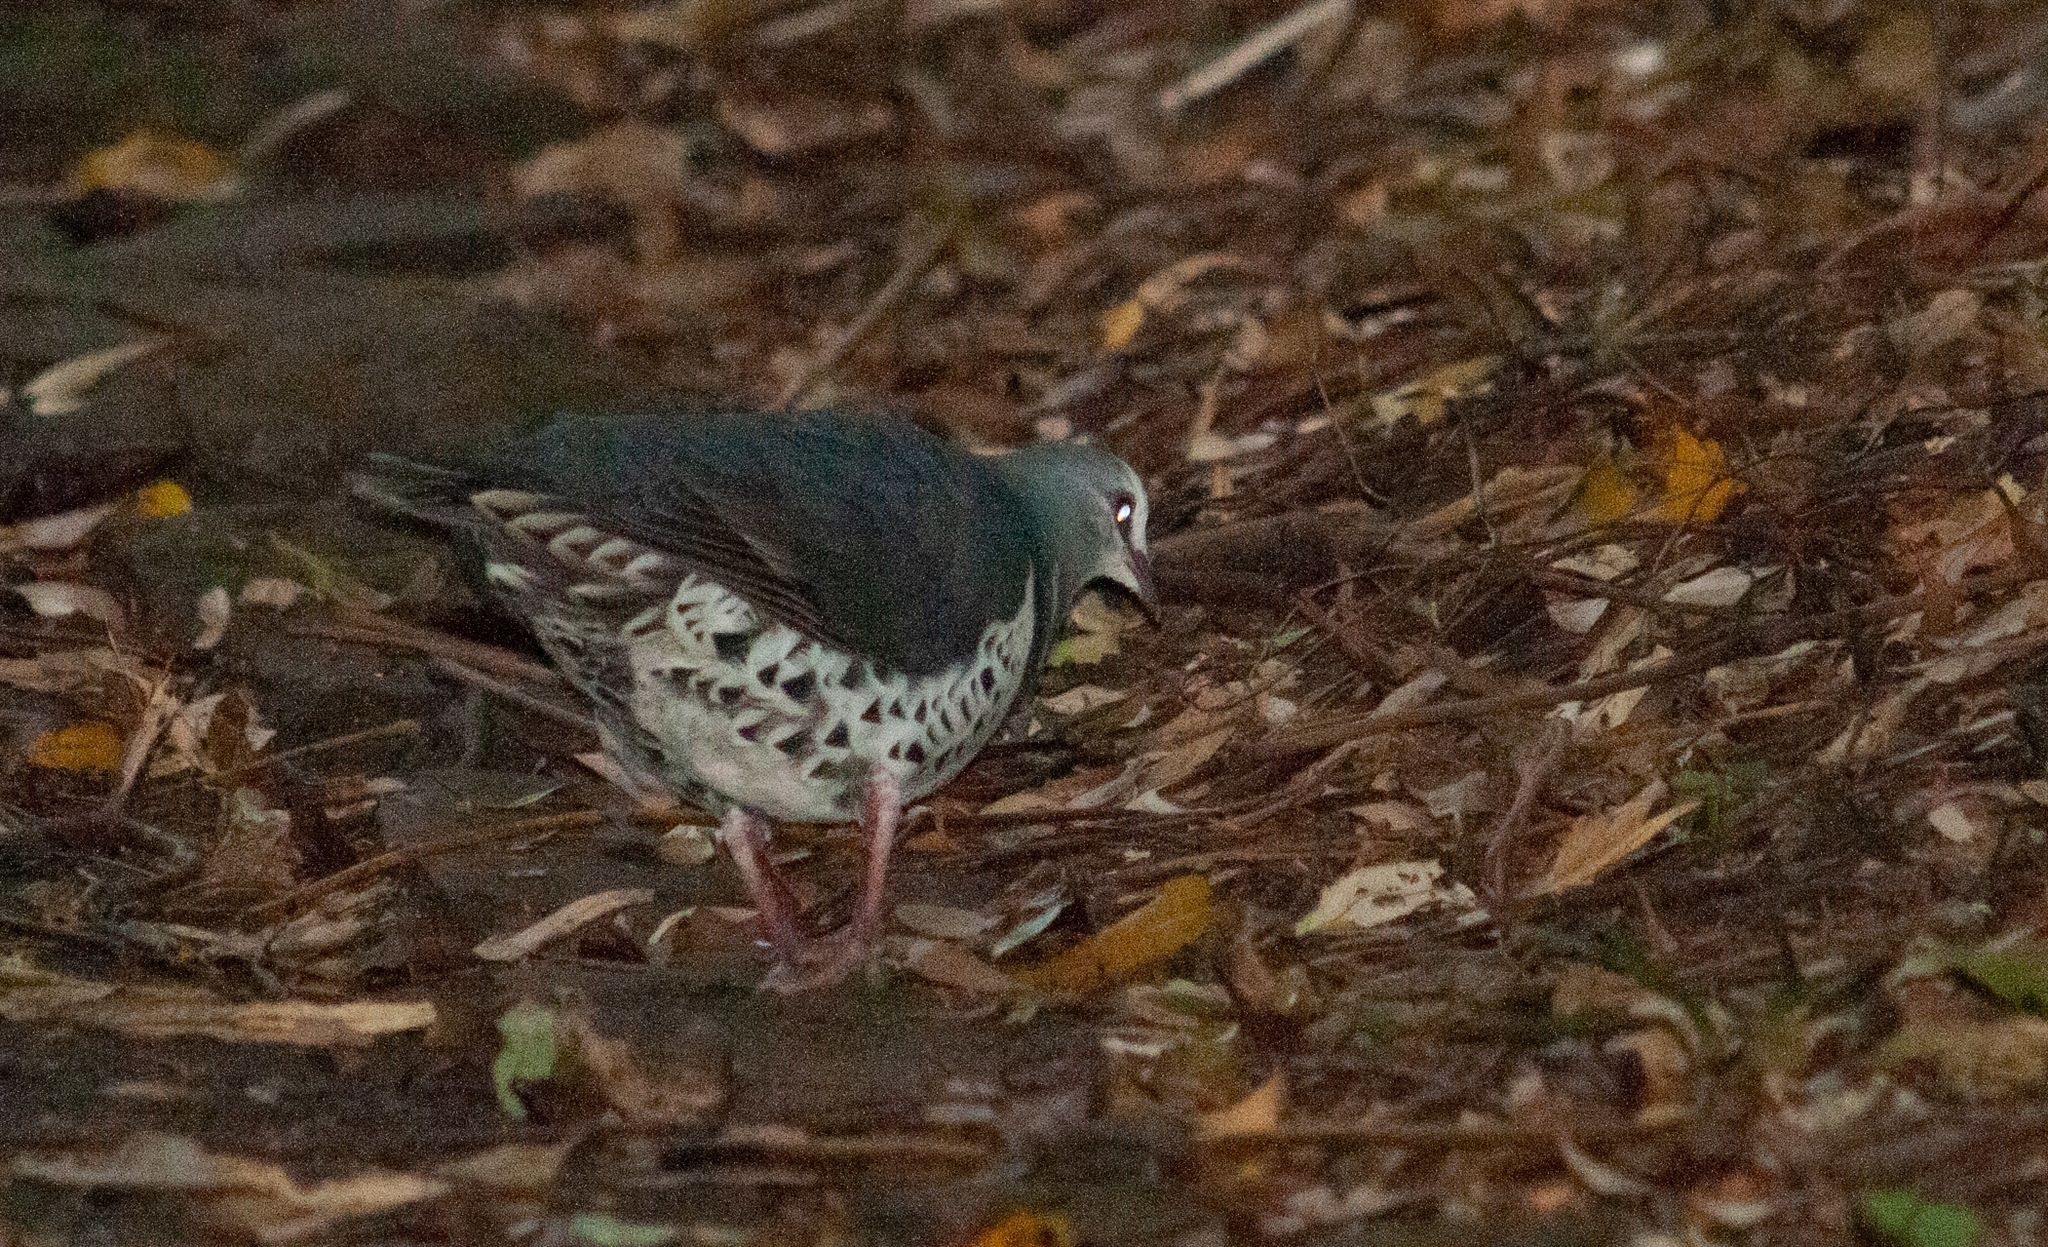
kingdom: Animalia
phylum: Chordata
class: Aves
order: Columbiformes
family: Columbidae
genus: Leucosarcia
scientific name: Leucosarcia melanoleuca
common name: Wonga pigeon
